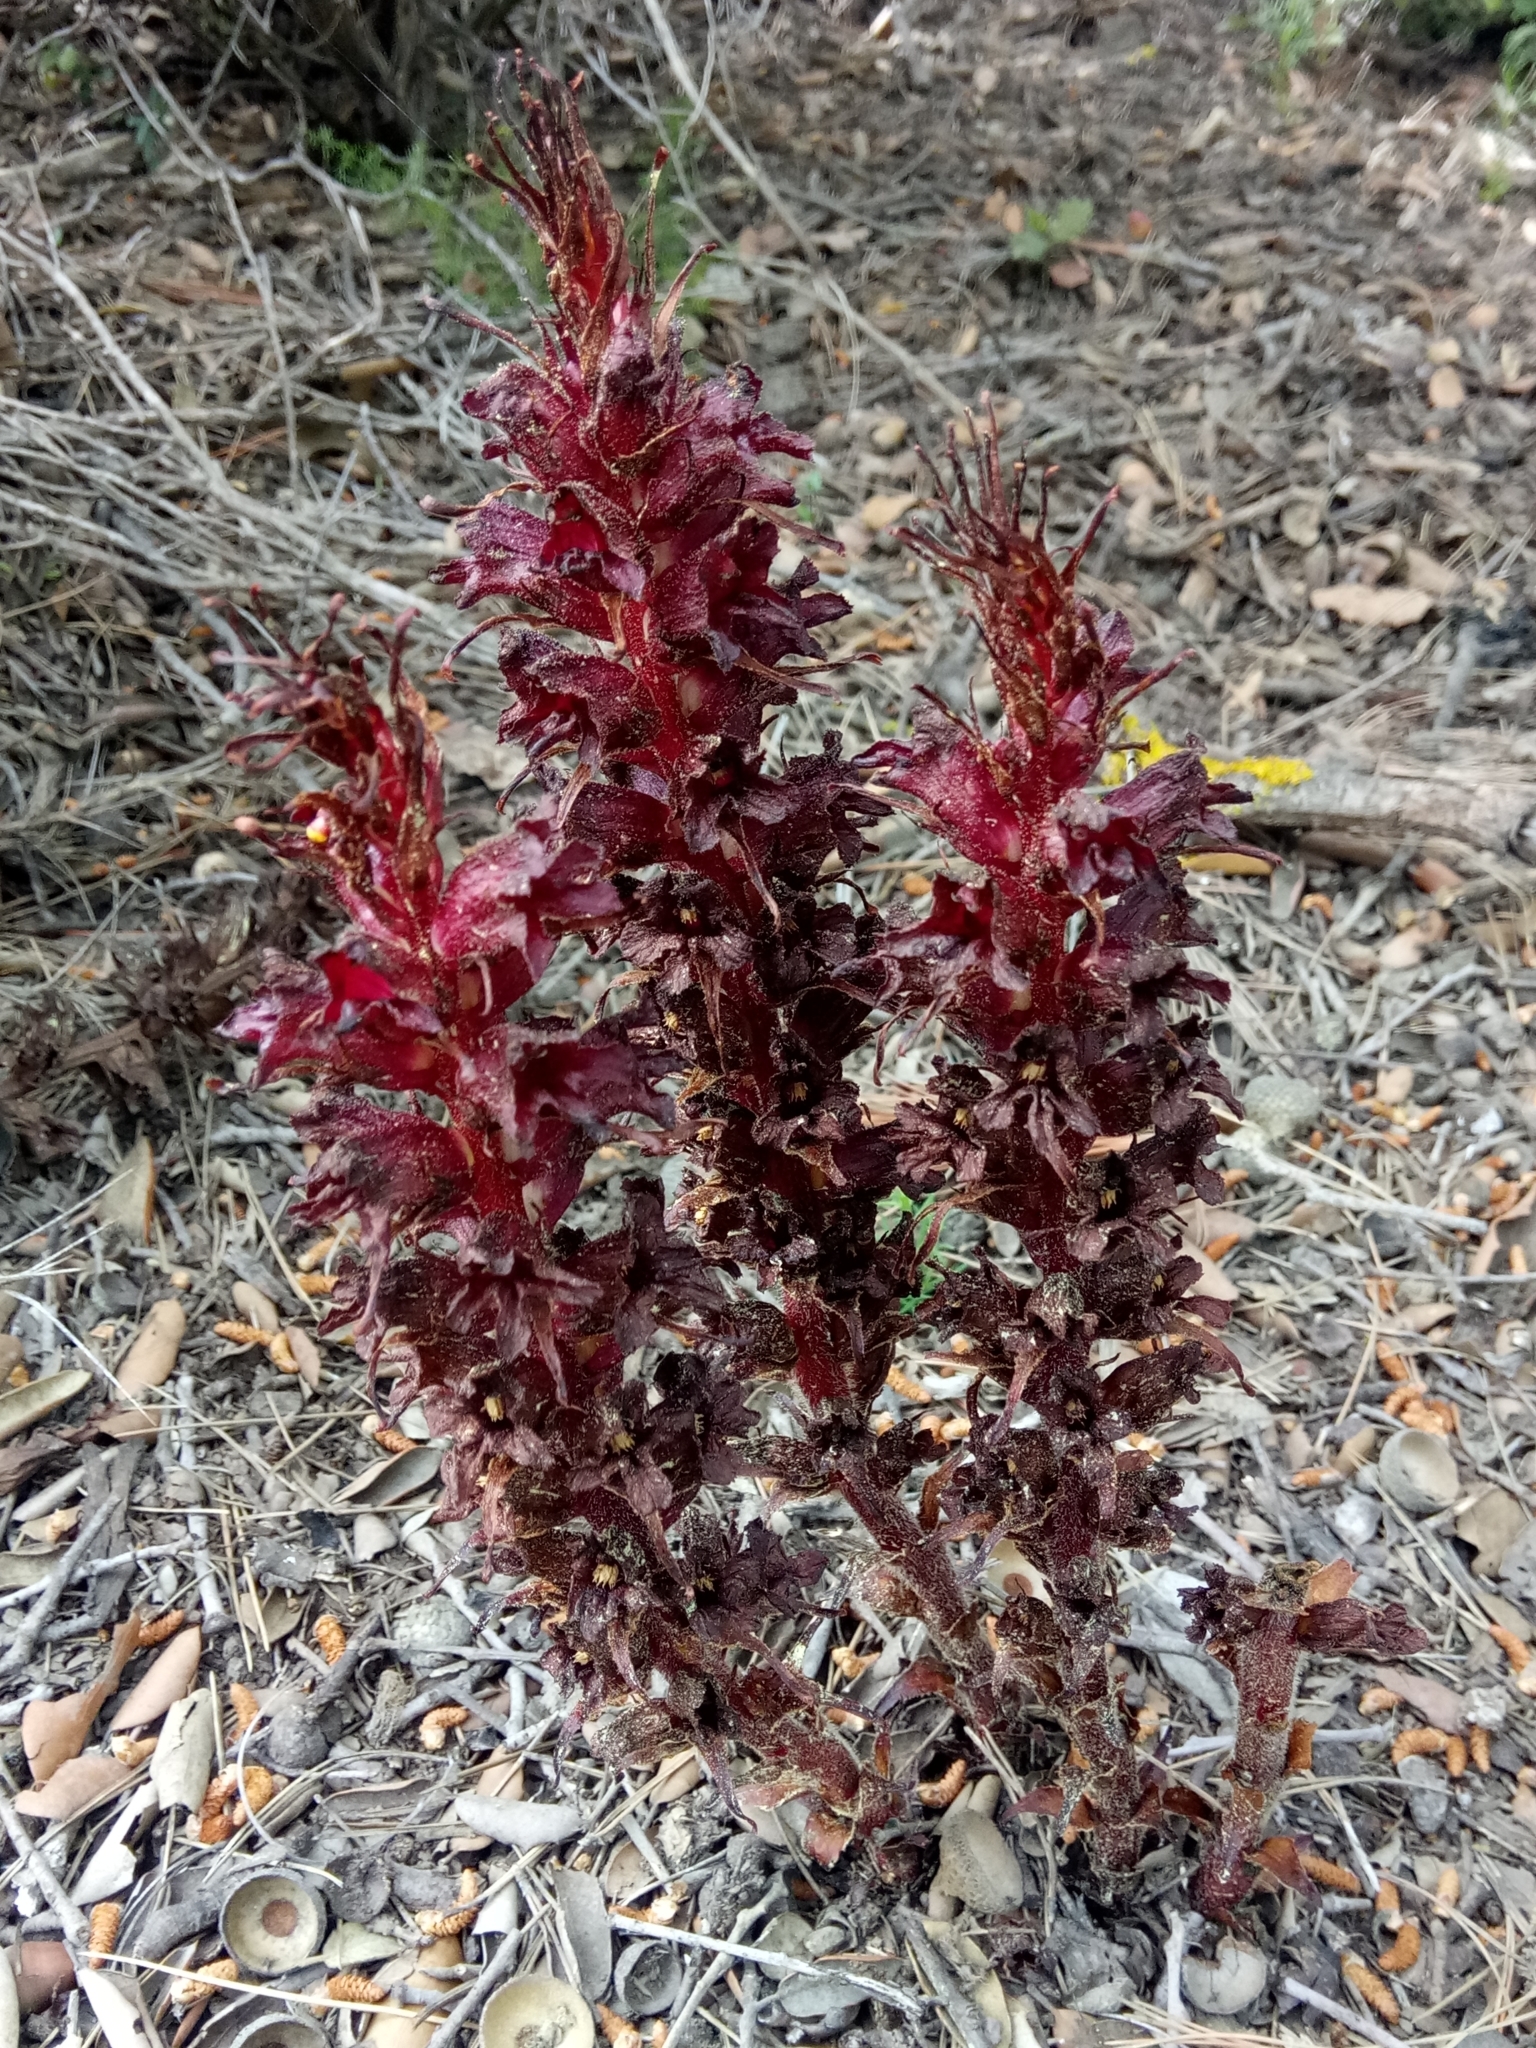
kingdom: Plantae
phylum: Tracheophyta
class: Magnoliopsida
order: Lamiales
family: Orobanchaceae
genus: Orobanche
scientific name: Orobanche variegata
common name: Variegated broomrape
